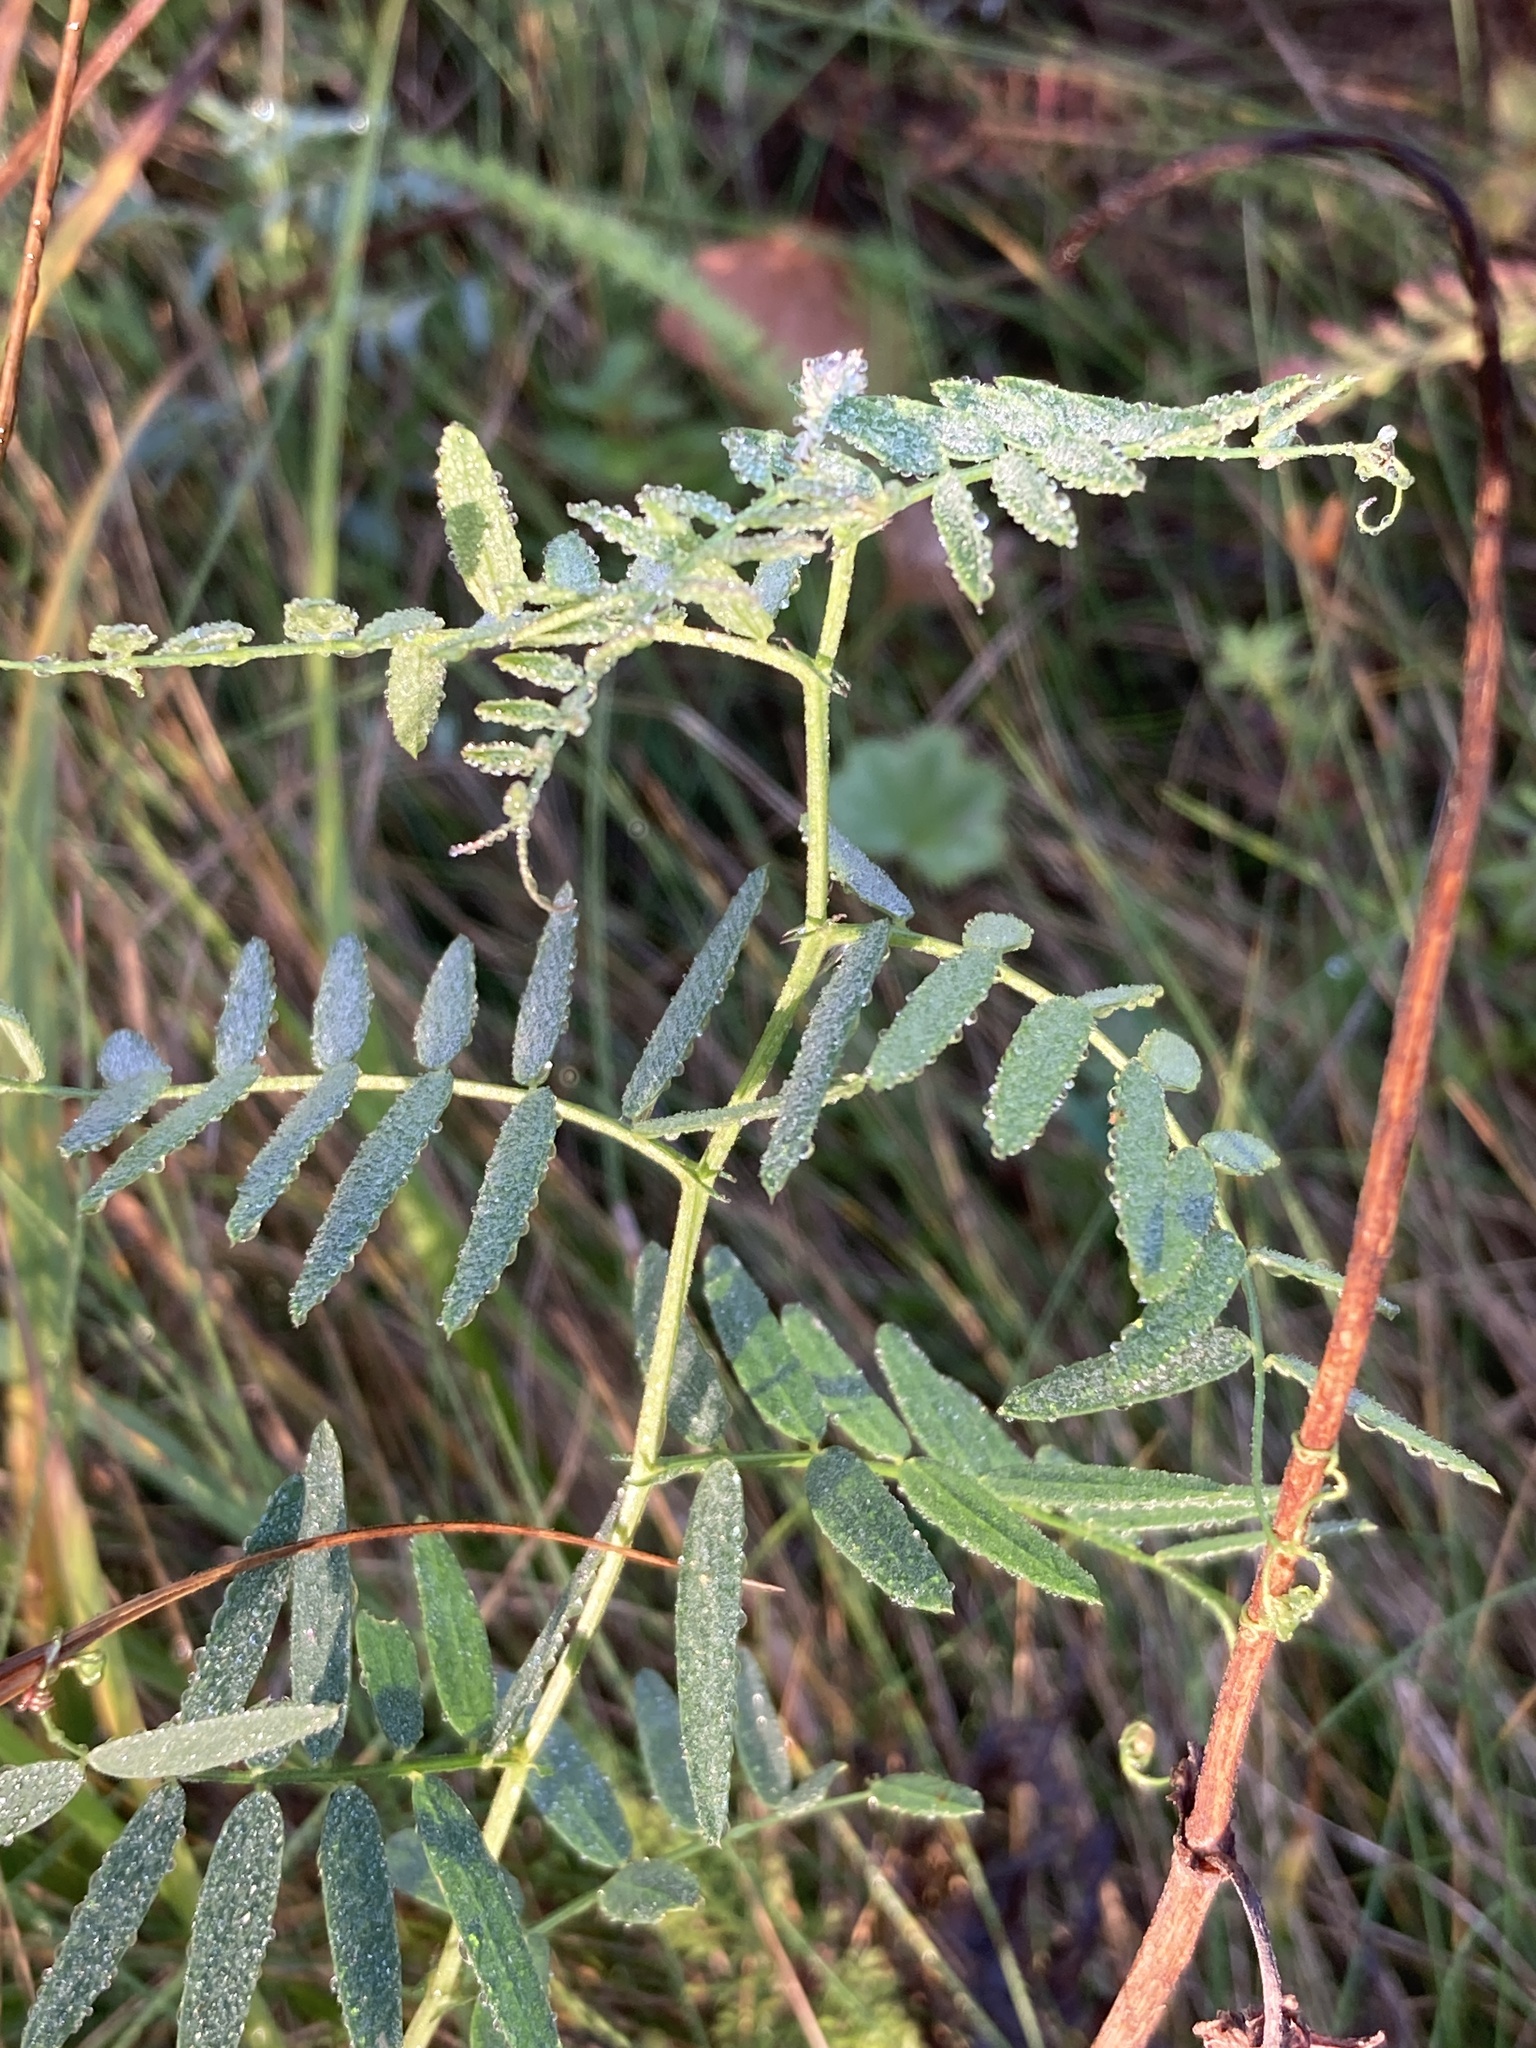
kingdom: Plantae
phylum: Tracheophyta
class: Magnoliopsida
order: Fabales
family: Fabaceae
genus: Vicia
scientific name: Vicia cracca
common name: Bird vetch
